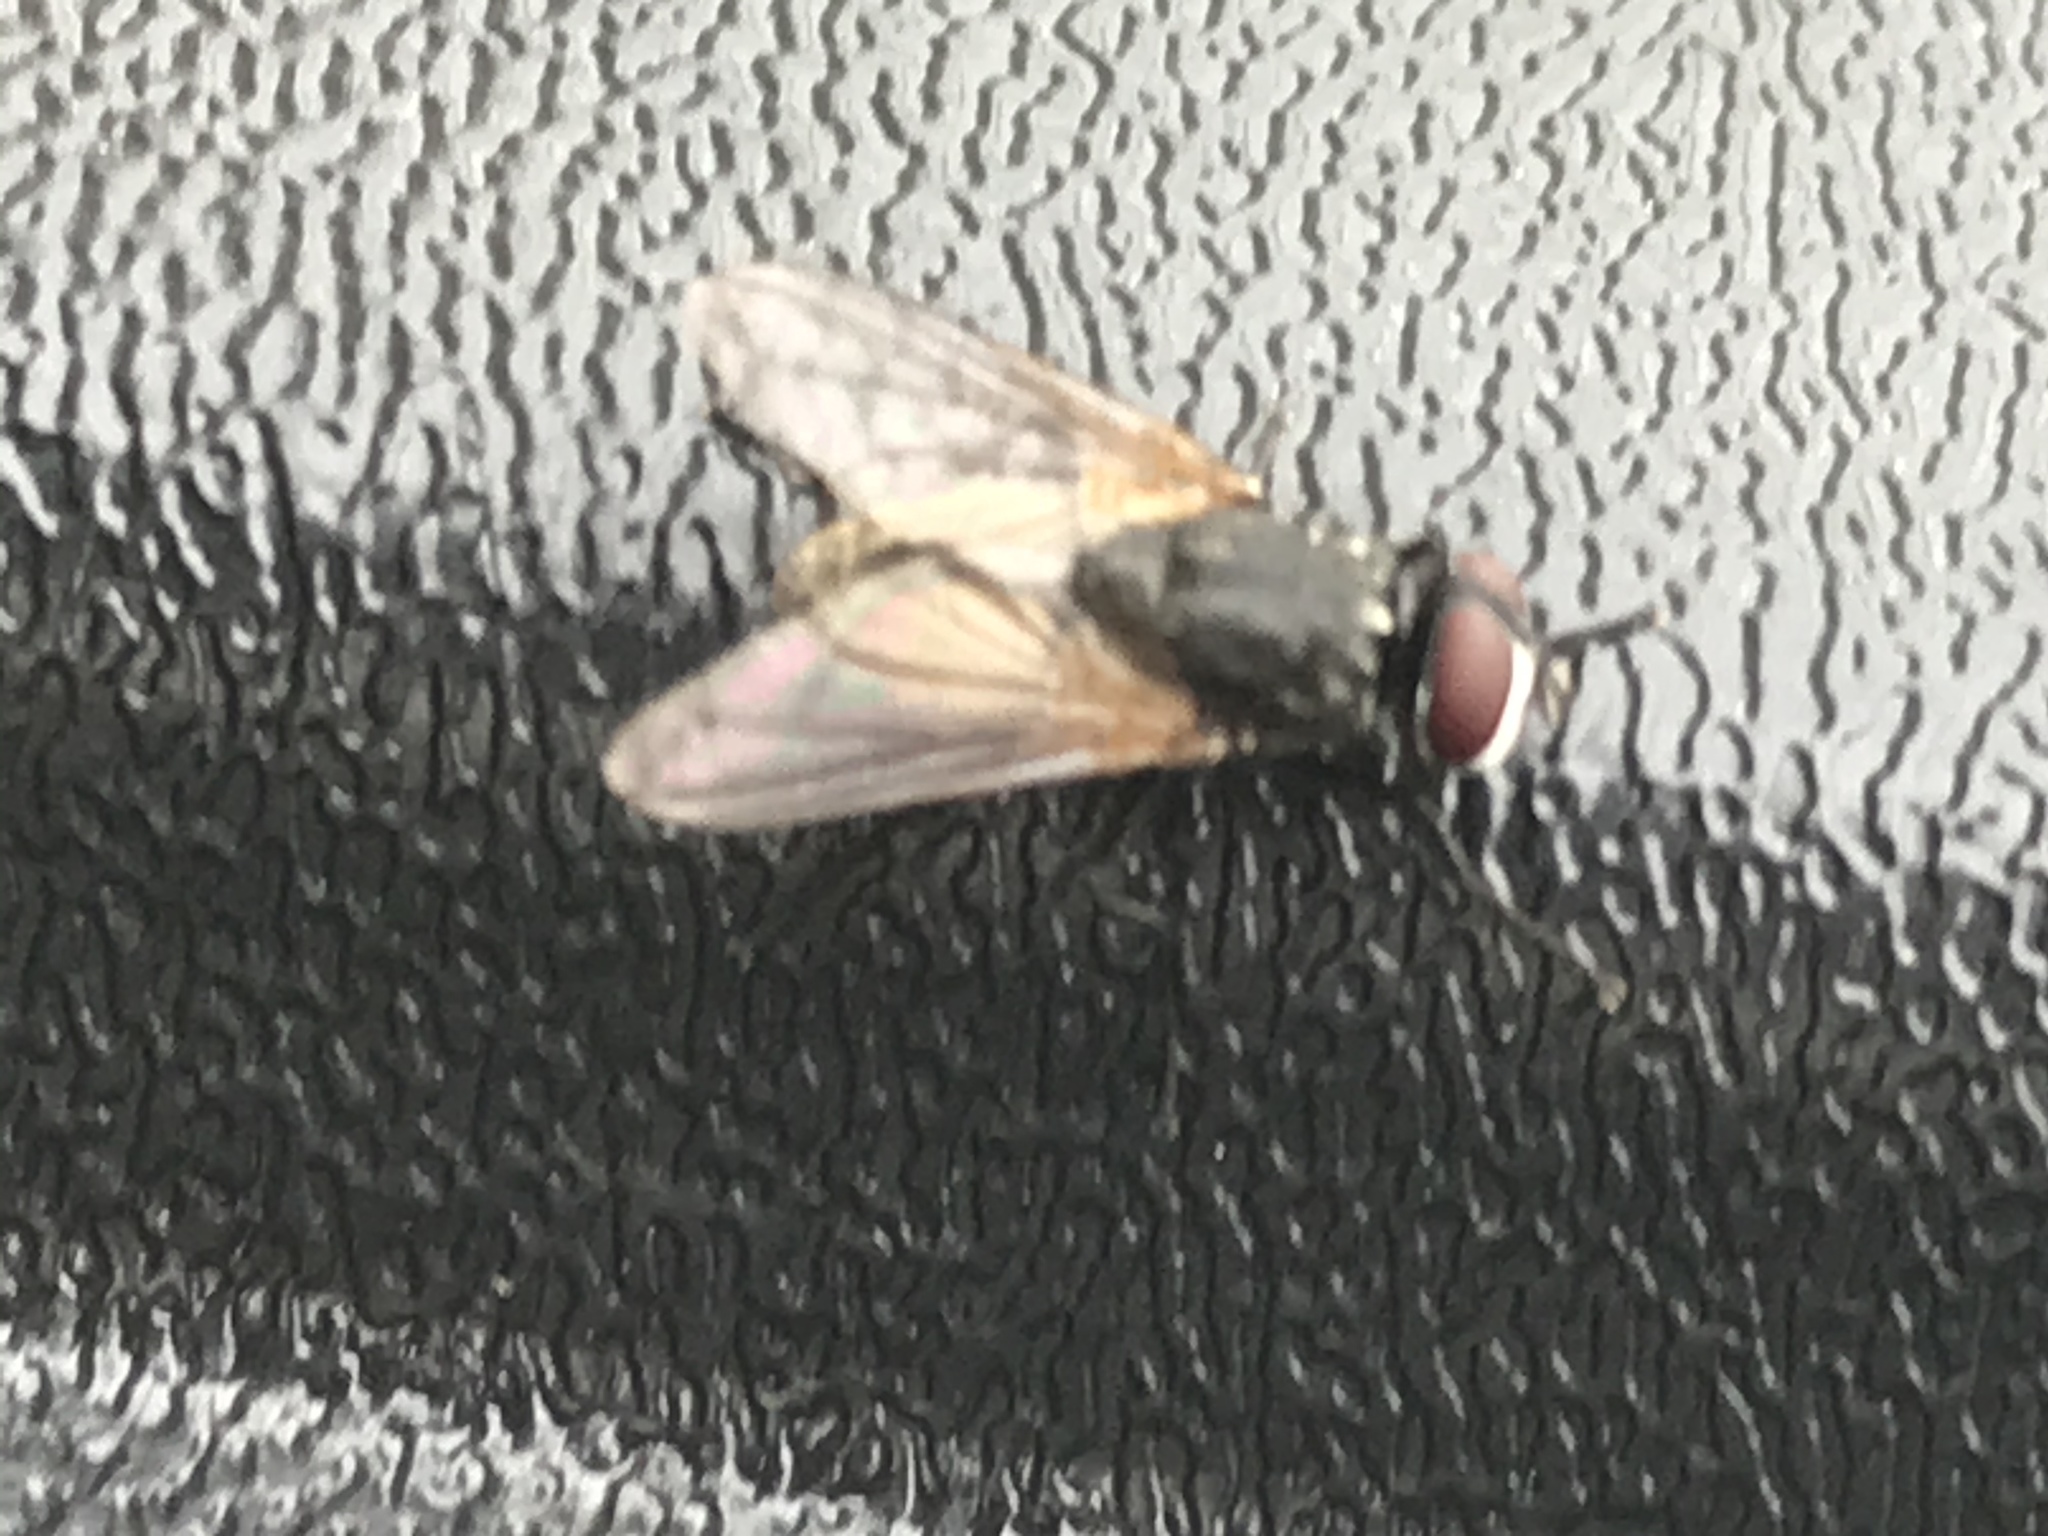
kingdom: Animalia
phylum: Arthropoda
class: Insecta
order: Diptera
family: Muscidae
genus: Musca
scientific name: Musca domestica
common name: House fly
